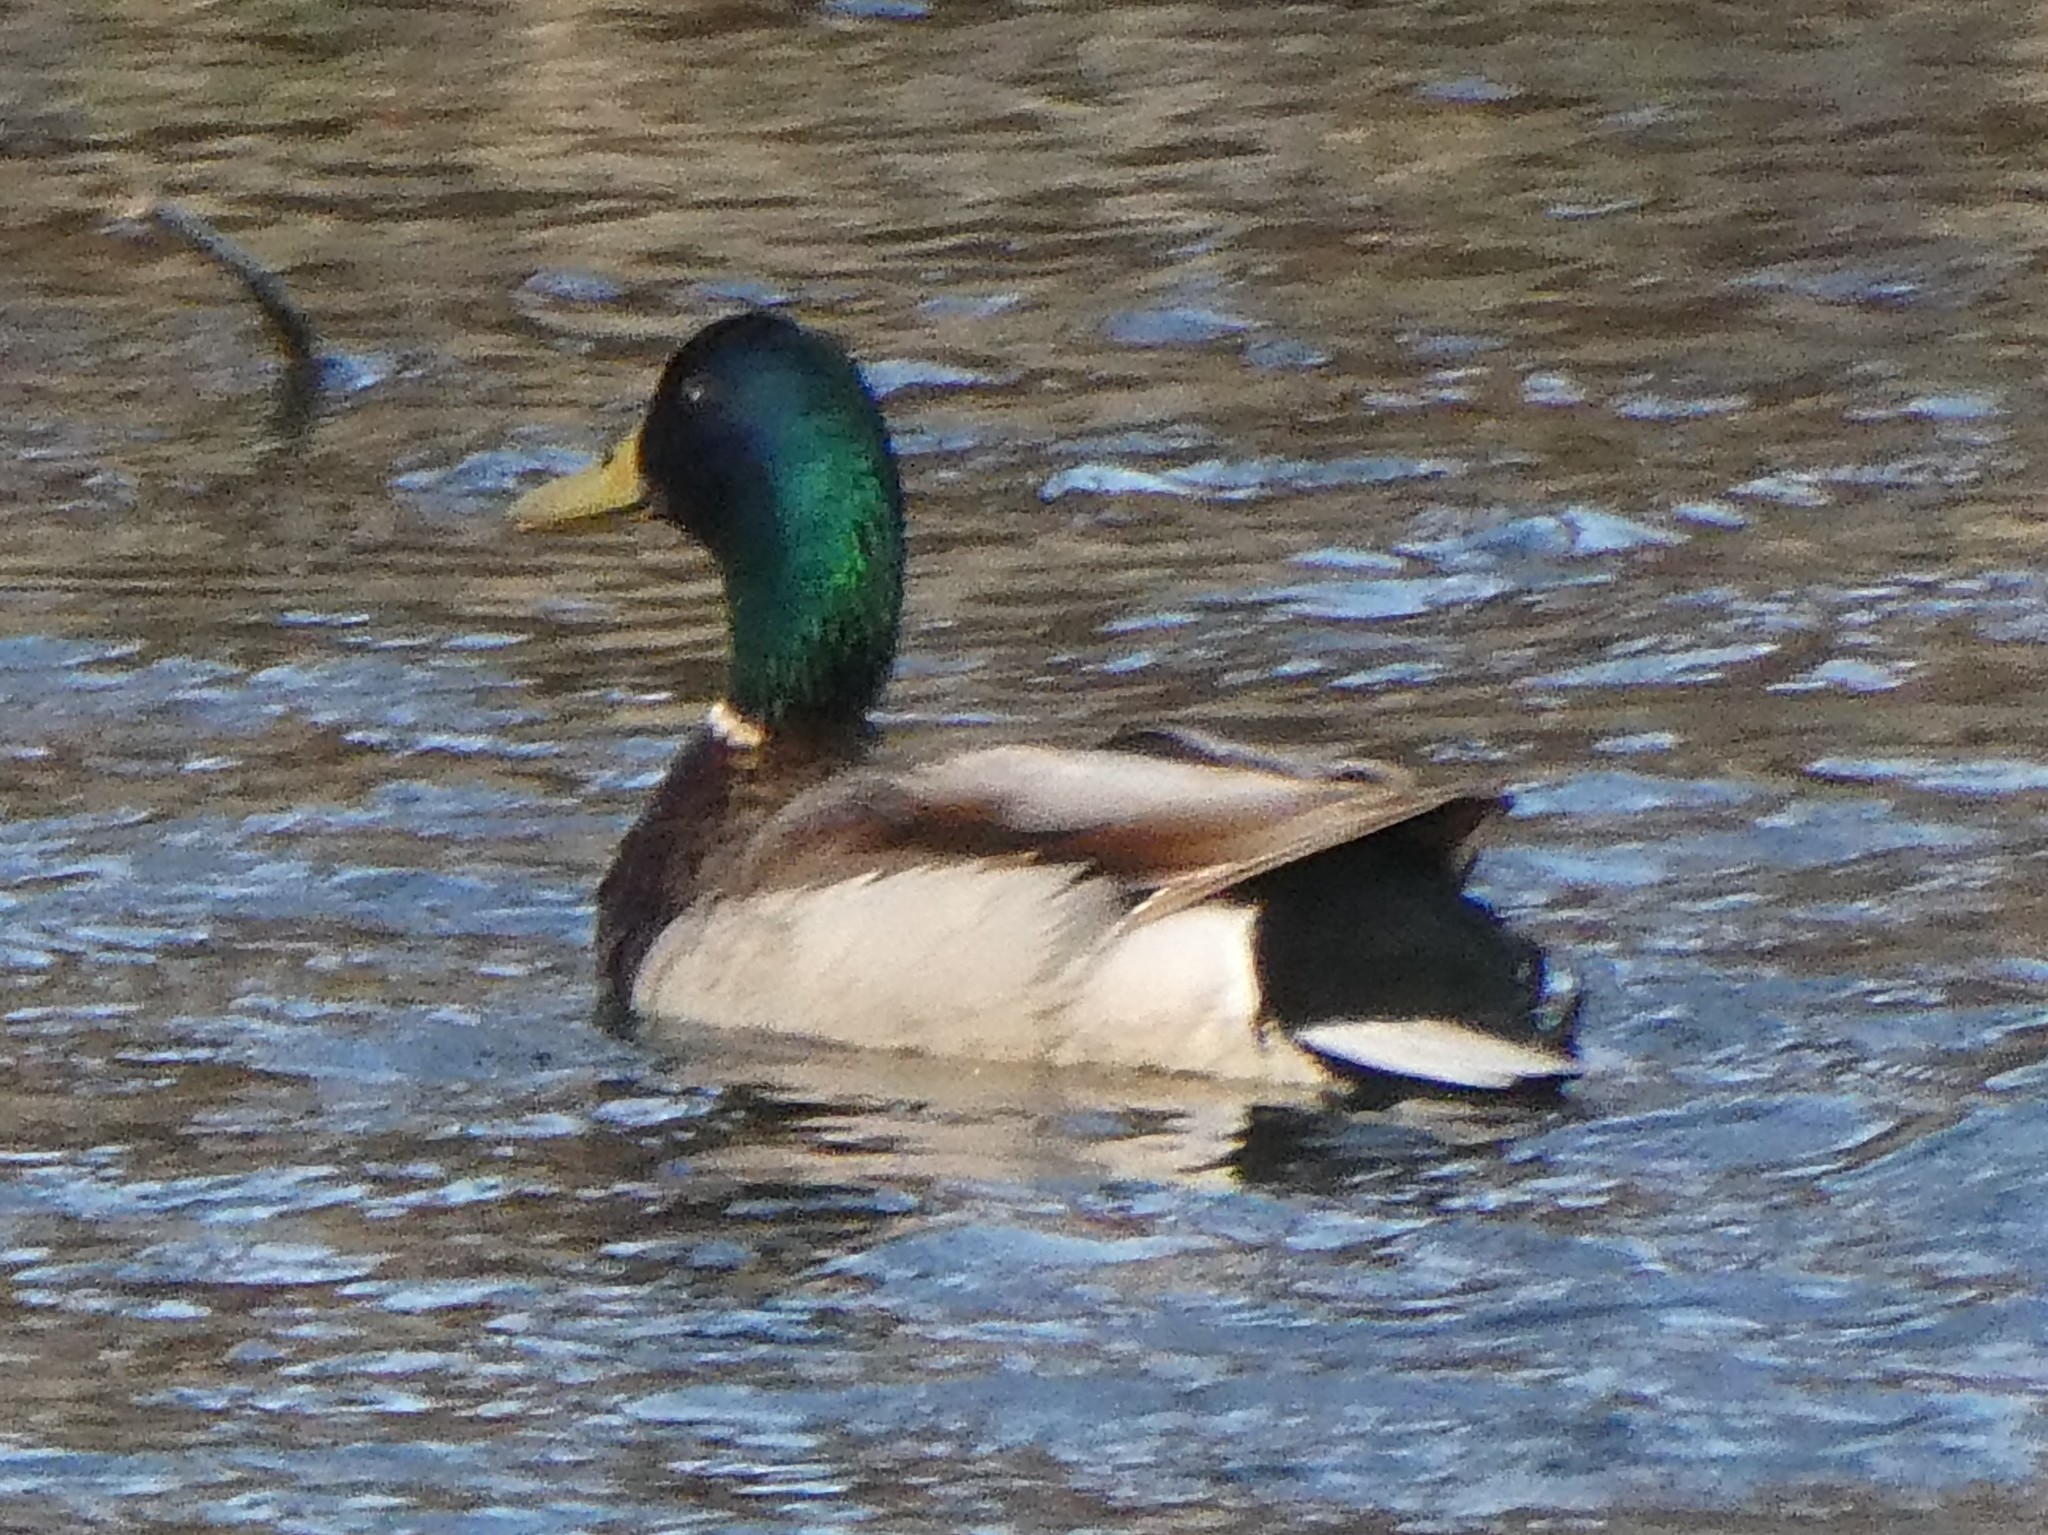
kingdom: Animalia
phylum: Chordata
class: Aves
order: Anseriformes
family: Anatidae
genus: Anas
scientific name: Anas platyrhynchos
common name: Mallard
